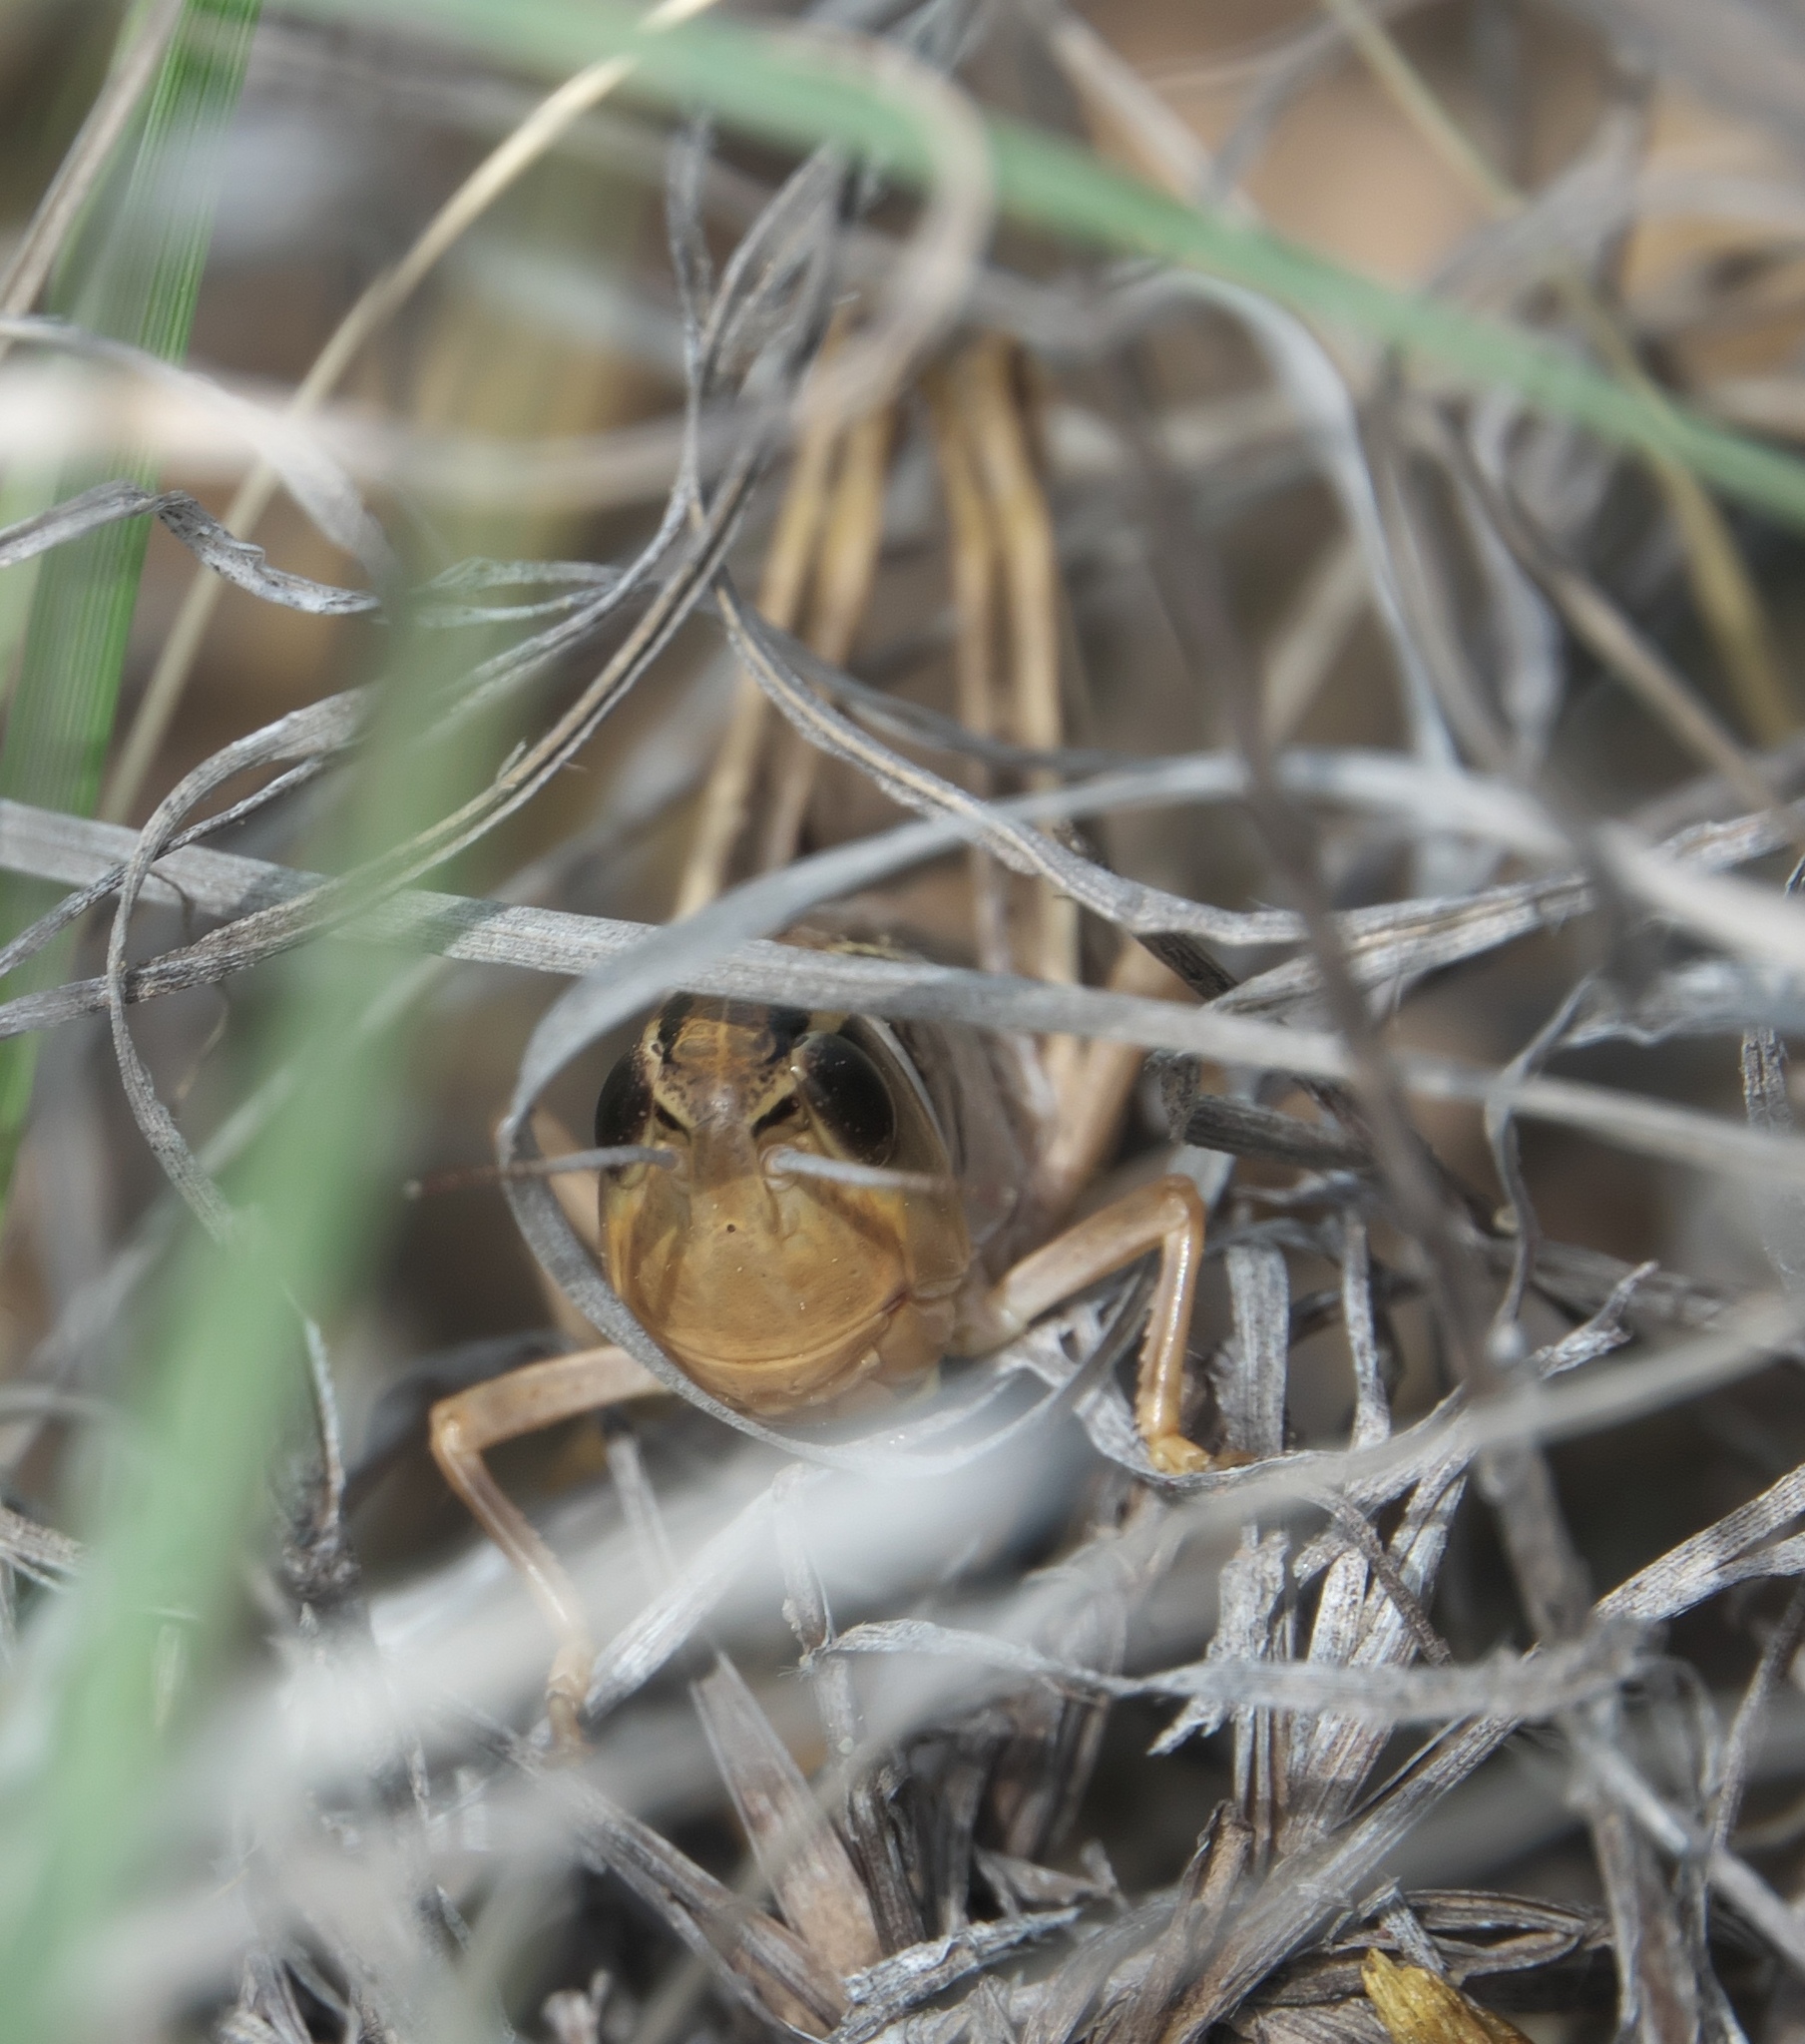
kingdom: Animalia
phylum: Arthropoda
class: Insecta
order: Orthoptera
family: Acrididae
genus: Boopedon
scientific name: Boopedon nubilum
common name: Ebony grasshopper
